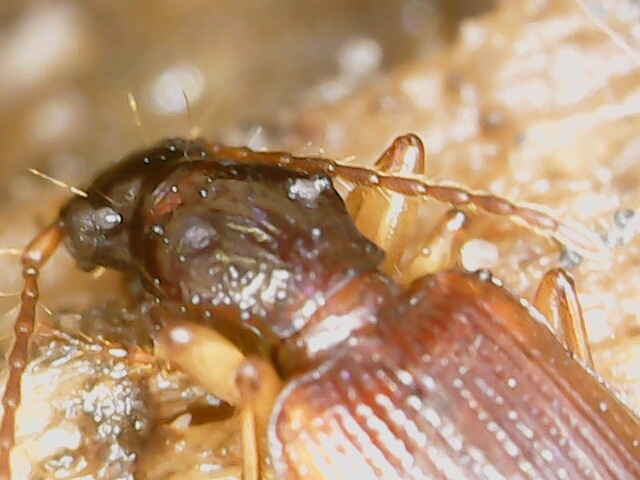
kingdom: Animalia
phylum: Arthropoda
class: Insecta
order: Coleoptera
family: Carabidae
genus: Oxypselaphus
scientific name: Oxypselaphus obscurus
